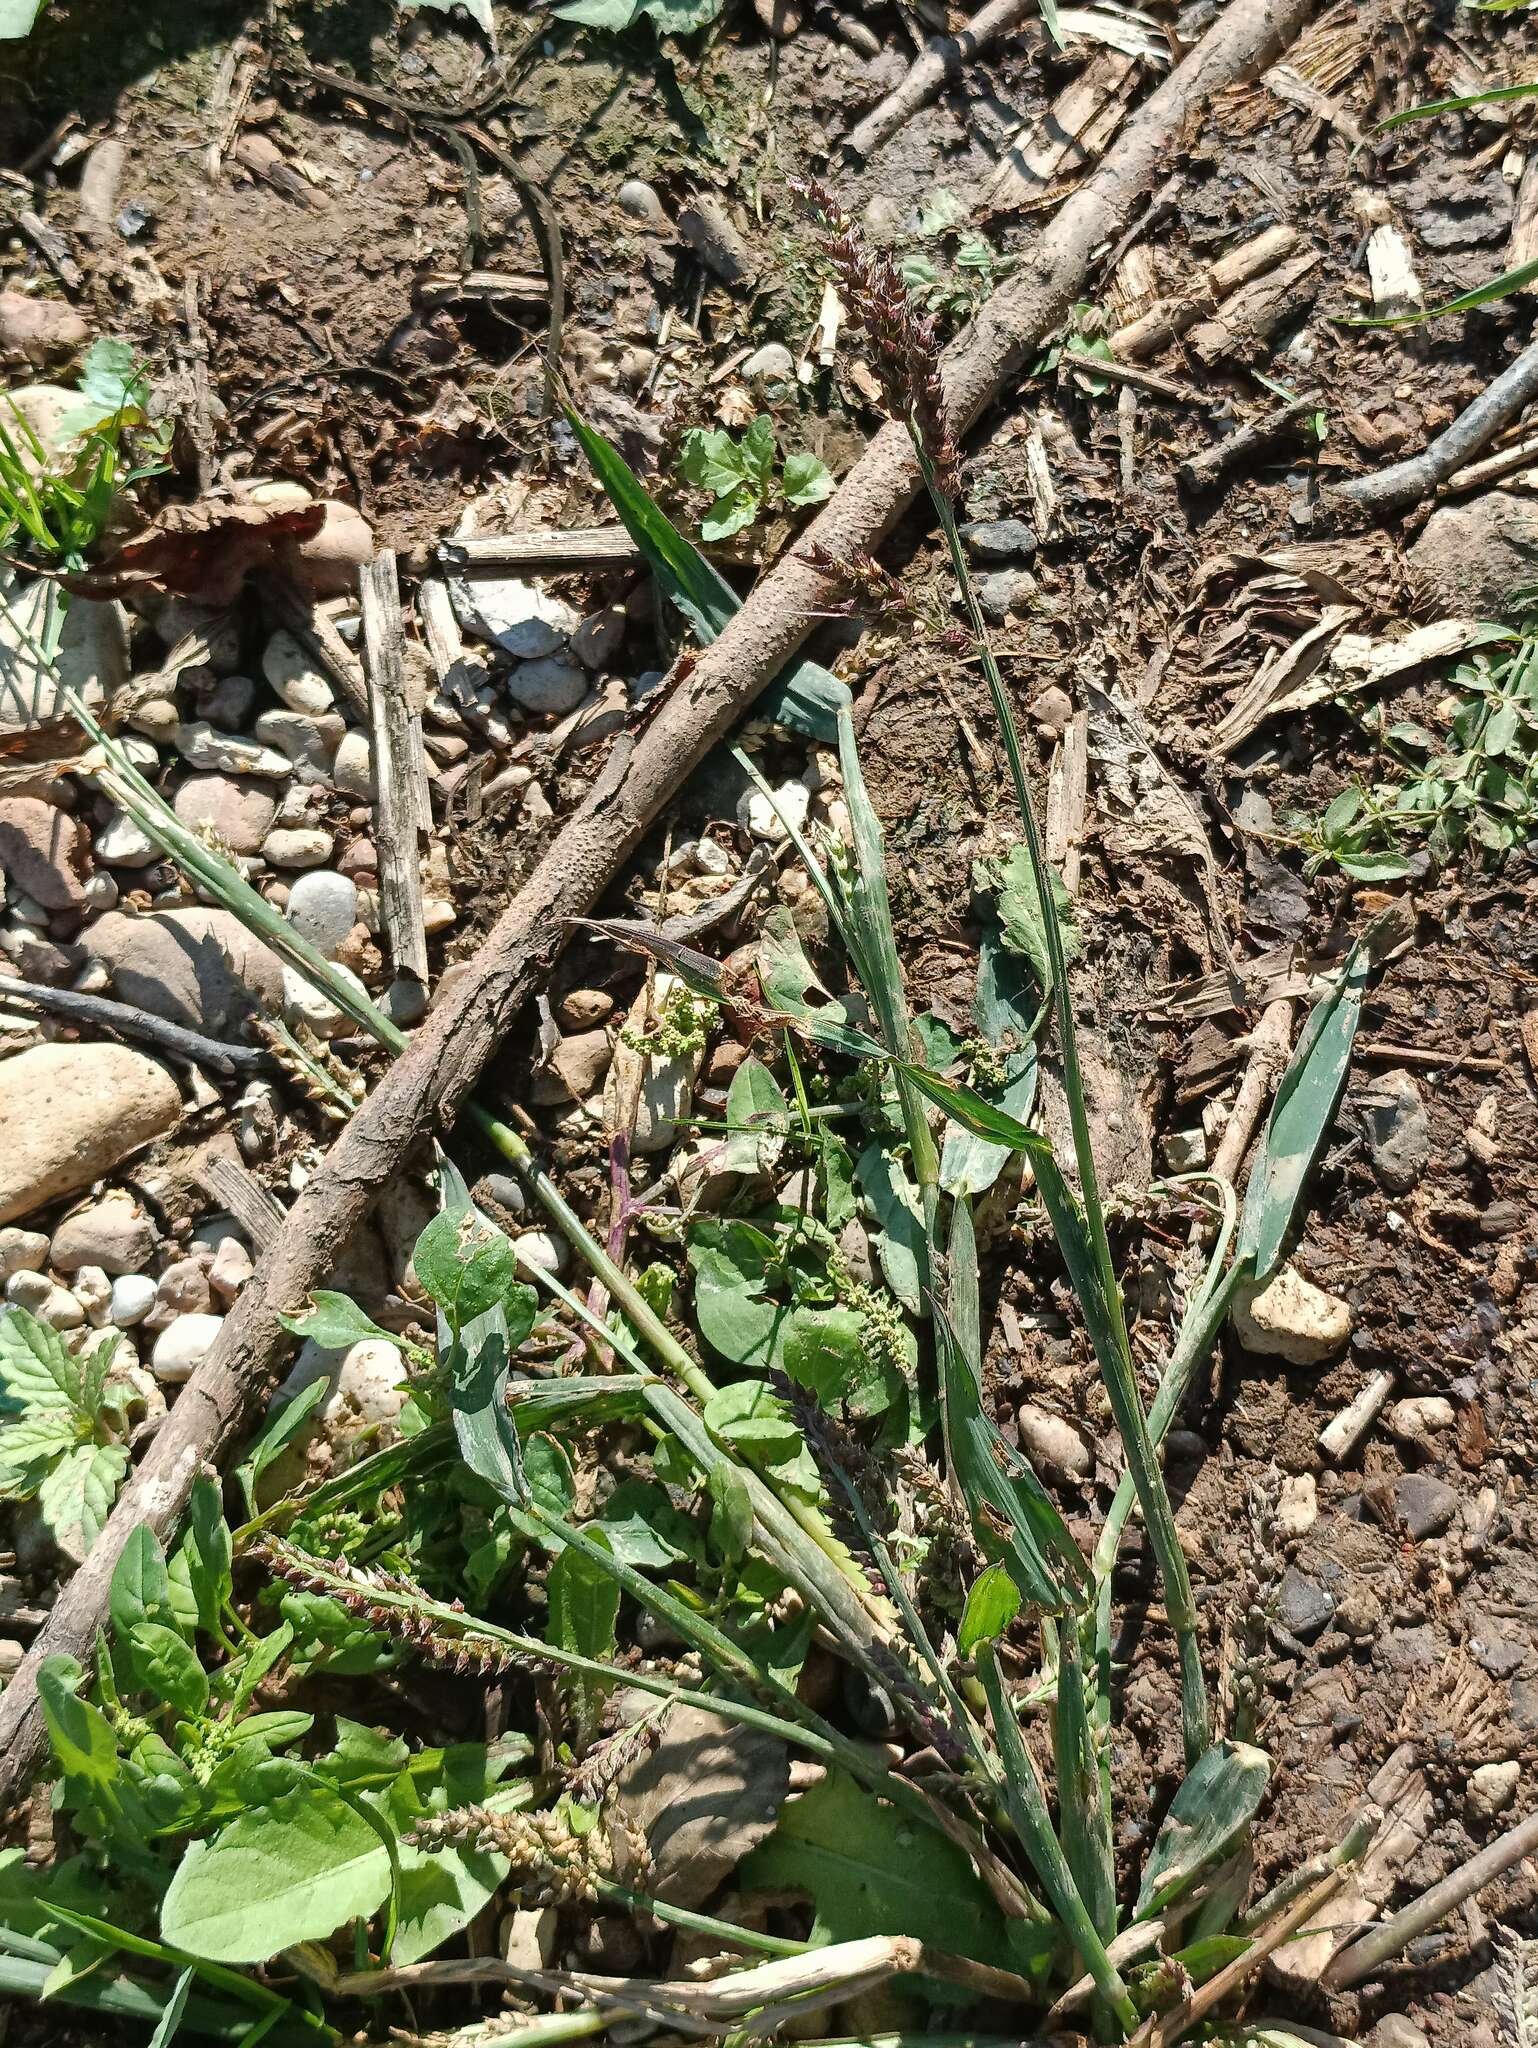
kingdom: Plantae
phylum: Tracheophyta
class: Liliopsida
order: Poales
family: Poaceae
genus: Echinochloa
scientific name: Echinochloa crus-galli
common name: Cockspur
